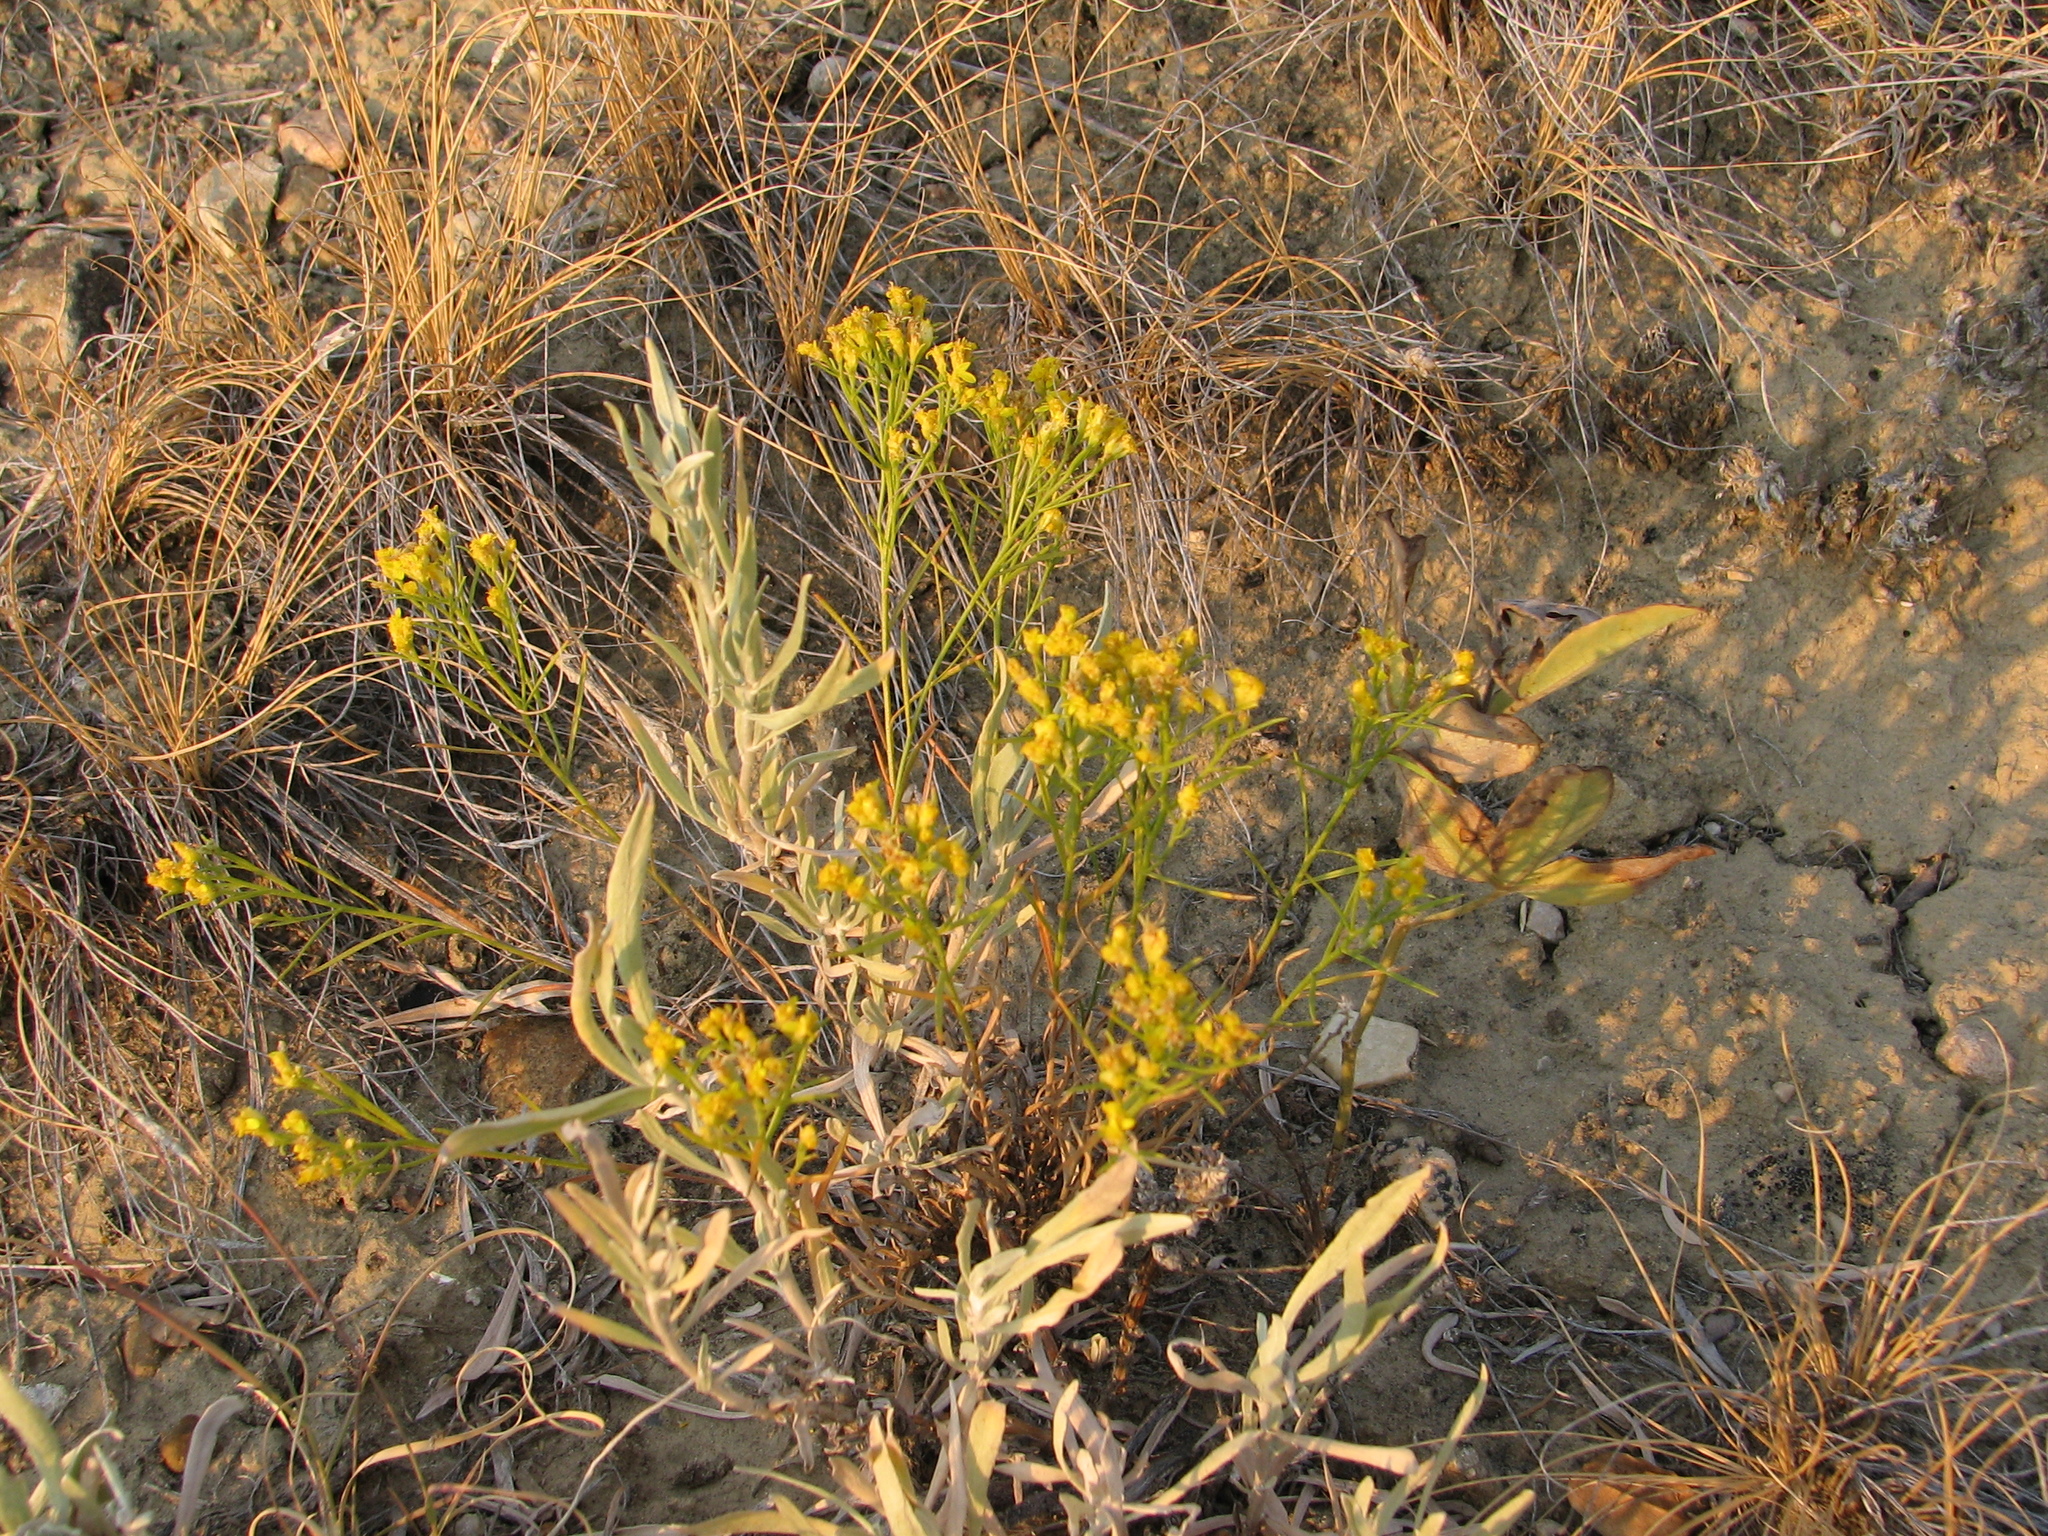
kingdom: Plantae
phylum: Tracheophyta
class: Magnoliopsida
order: Asterales
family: Asteraceae
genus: Gutierrezia
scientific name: Gutierrezia sarothrae
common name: Broom snakeweed
